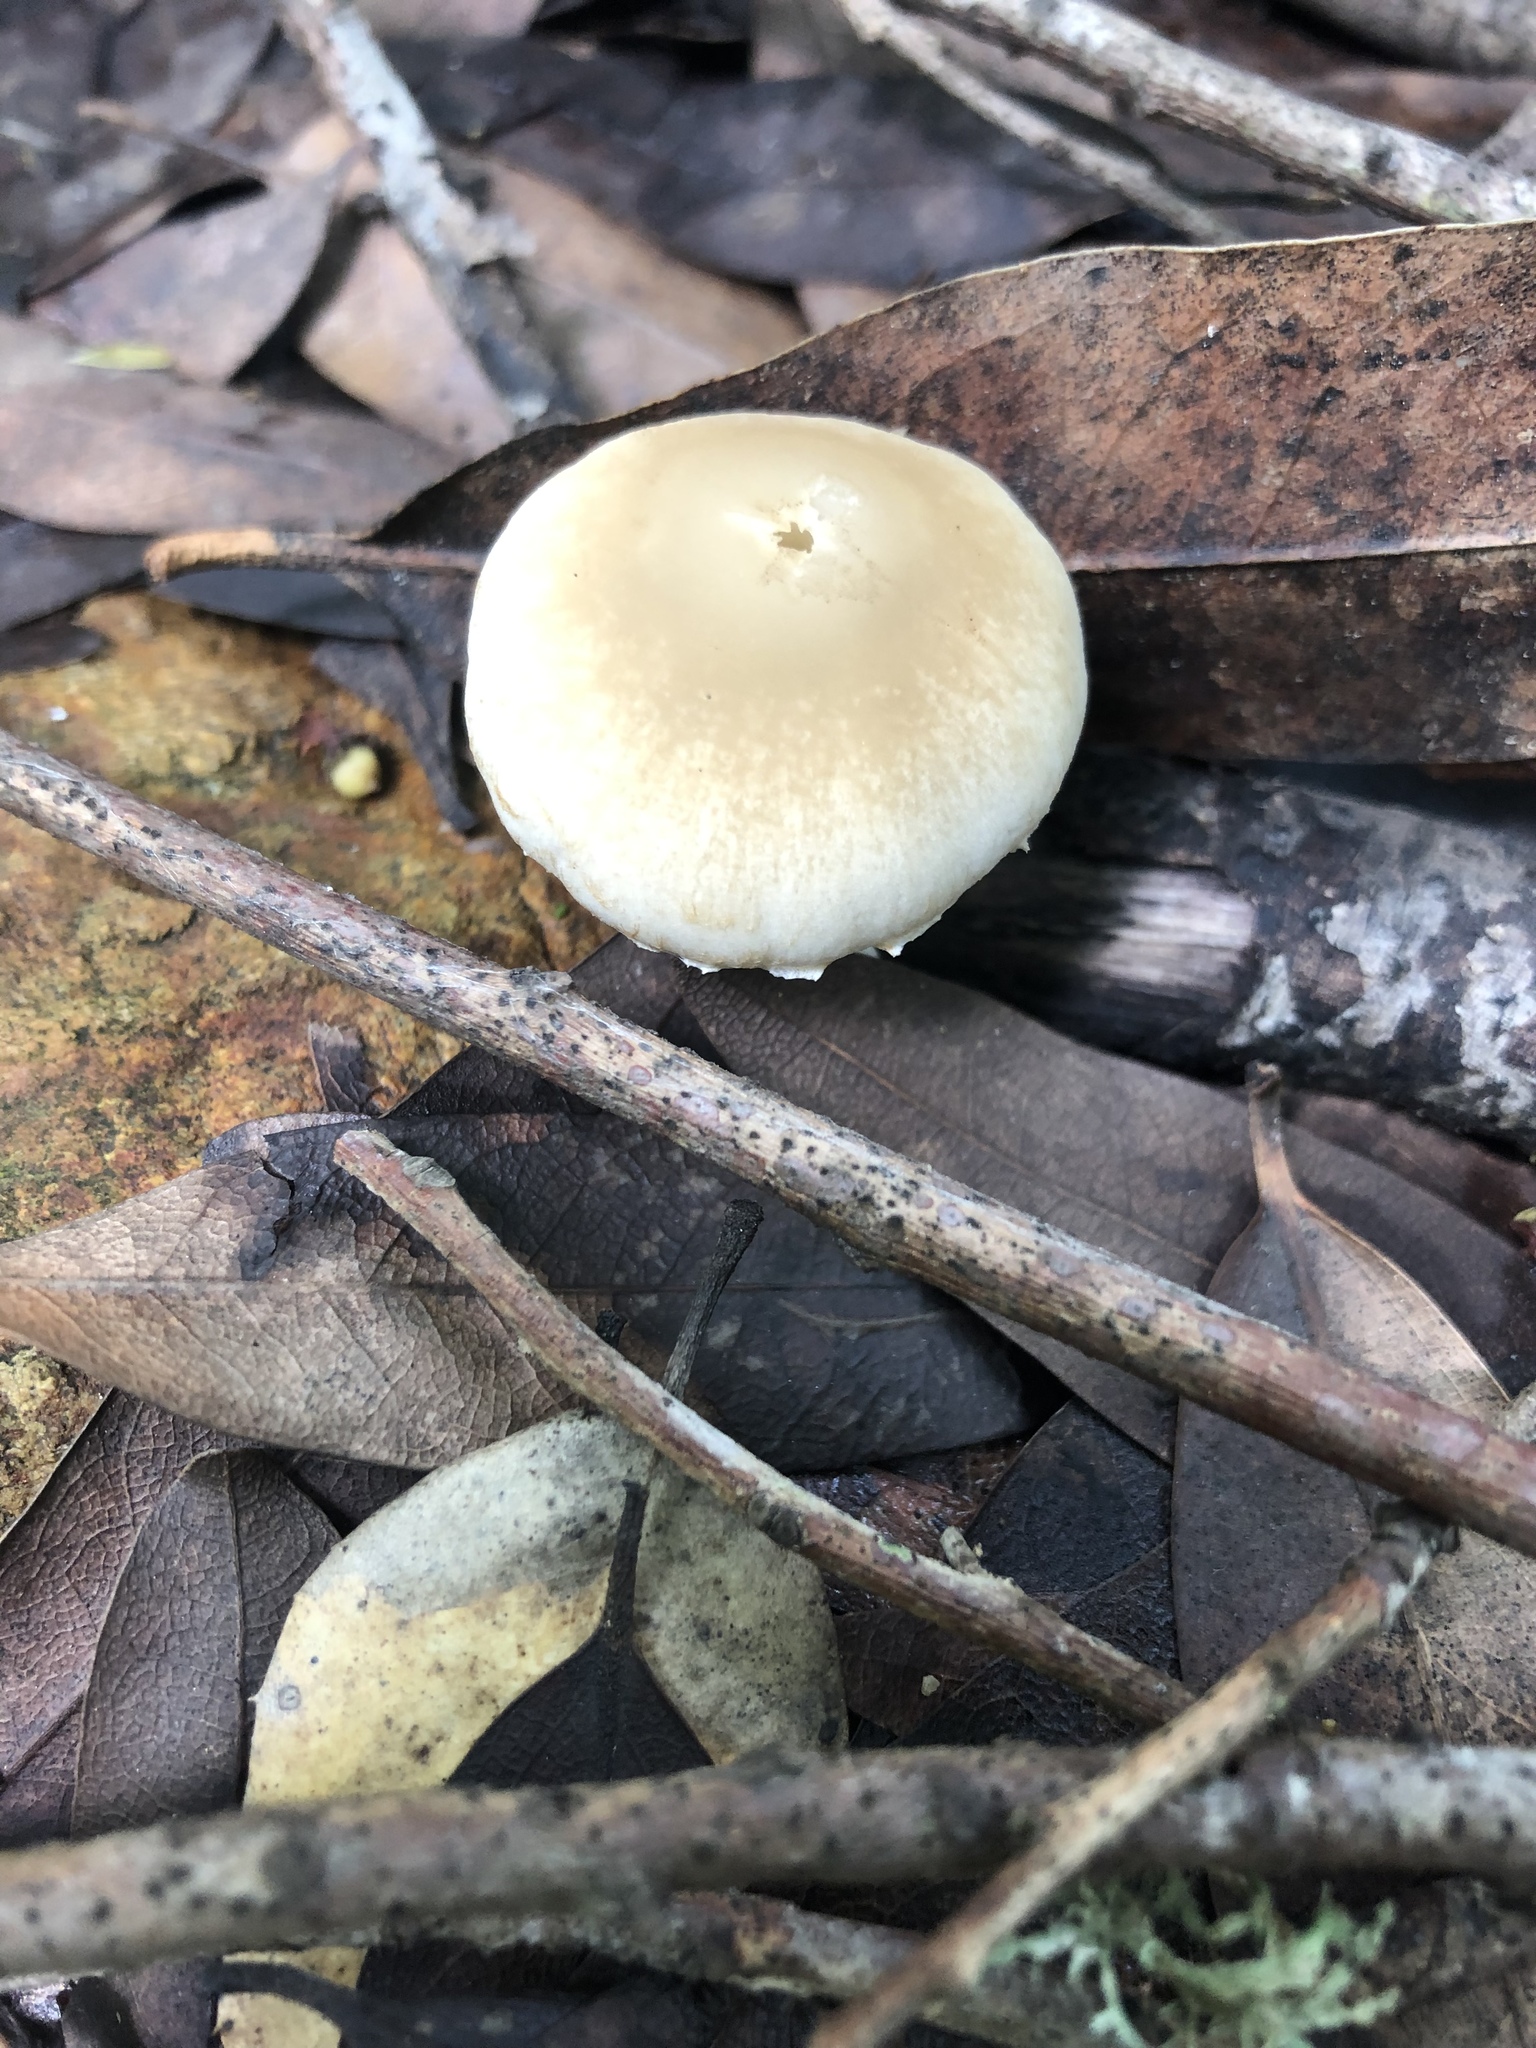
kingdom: Fungi
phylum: Basidiomycota
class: Agaricomycetes
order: Agaricales
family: Psathyrellaceae
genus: Candolleomyces
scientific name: Candolleomyces candolleanus
